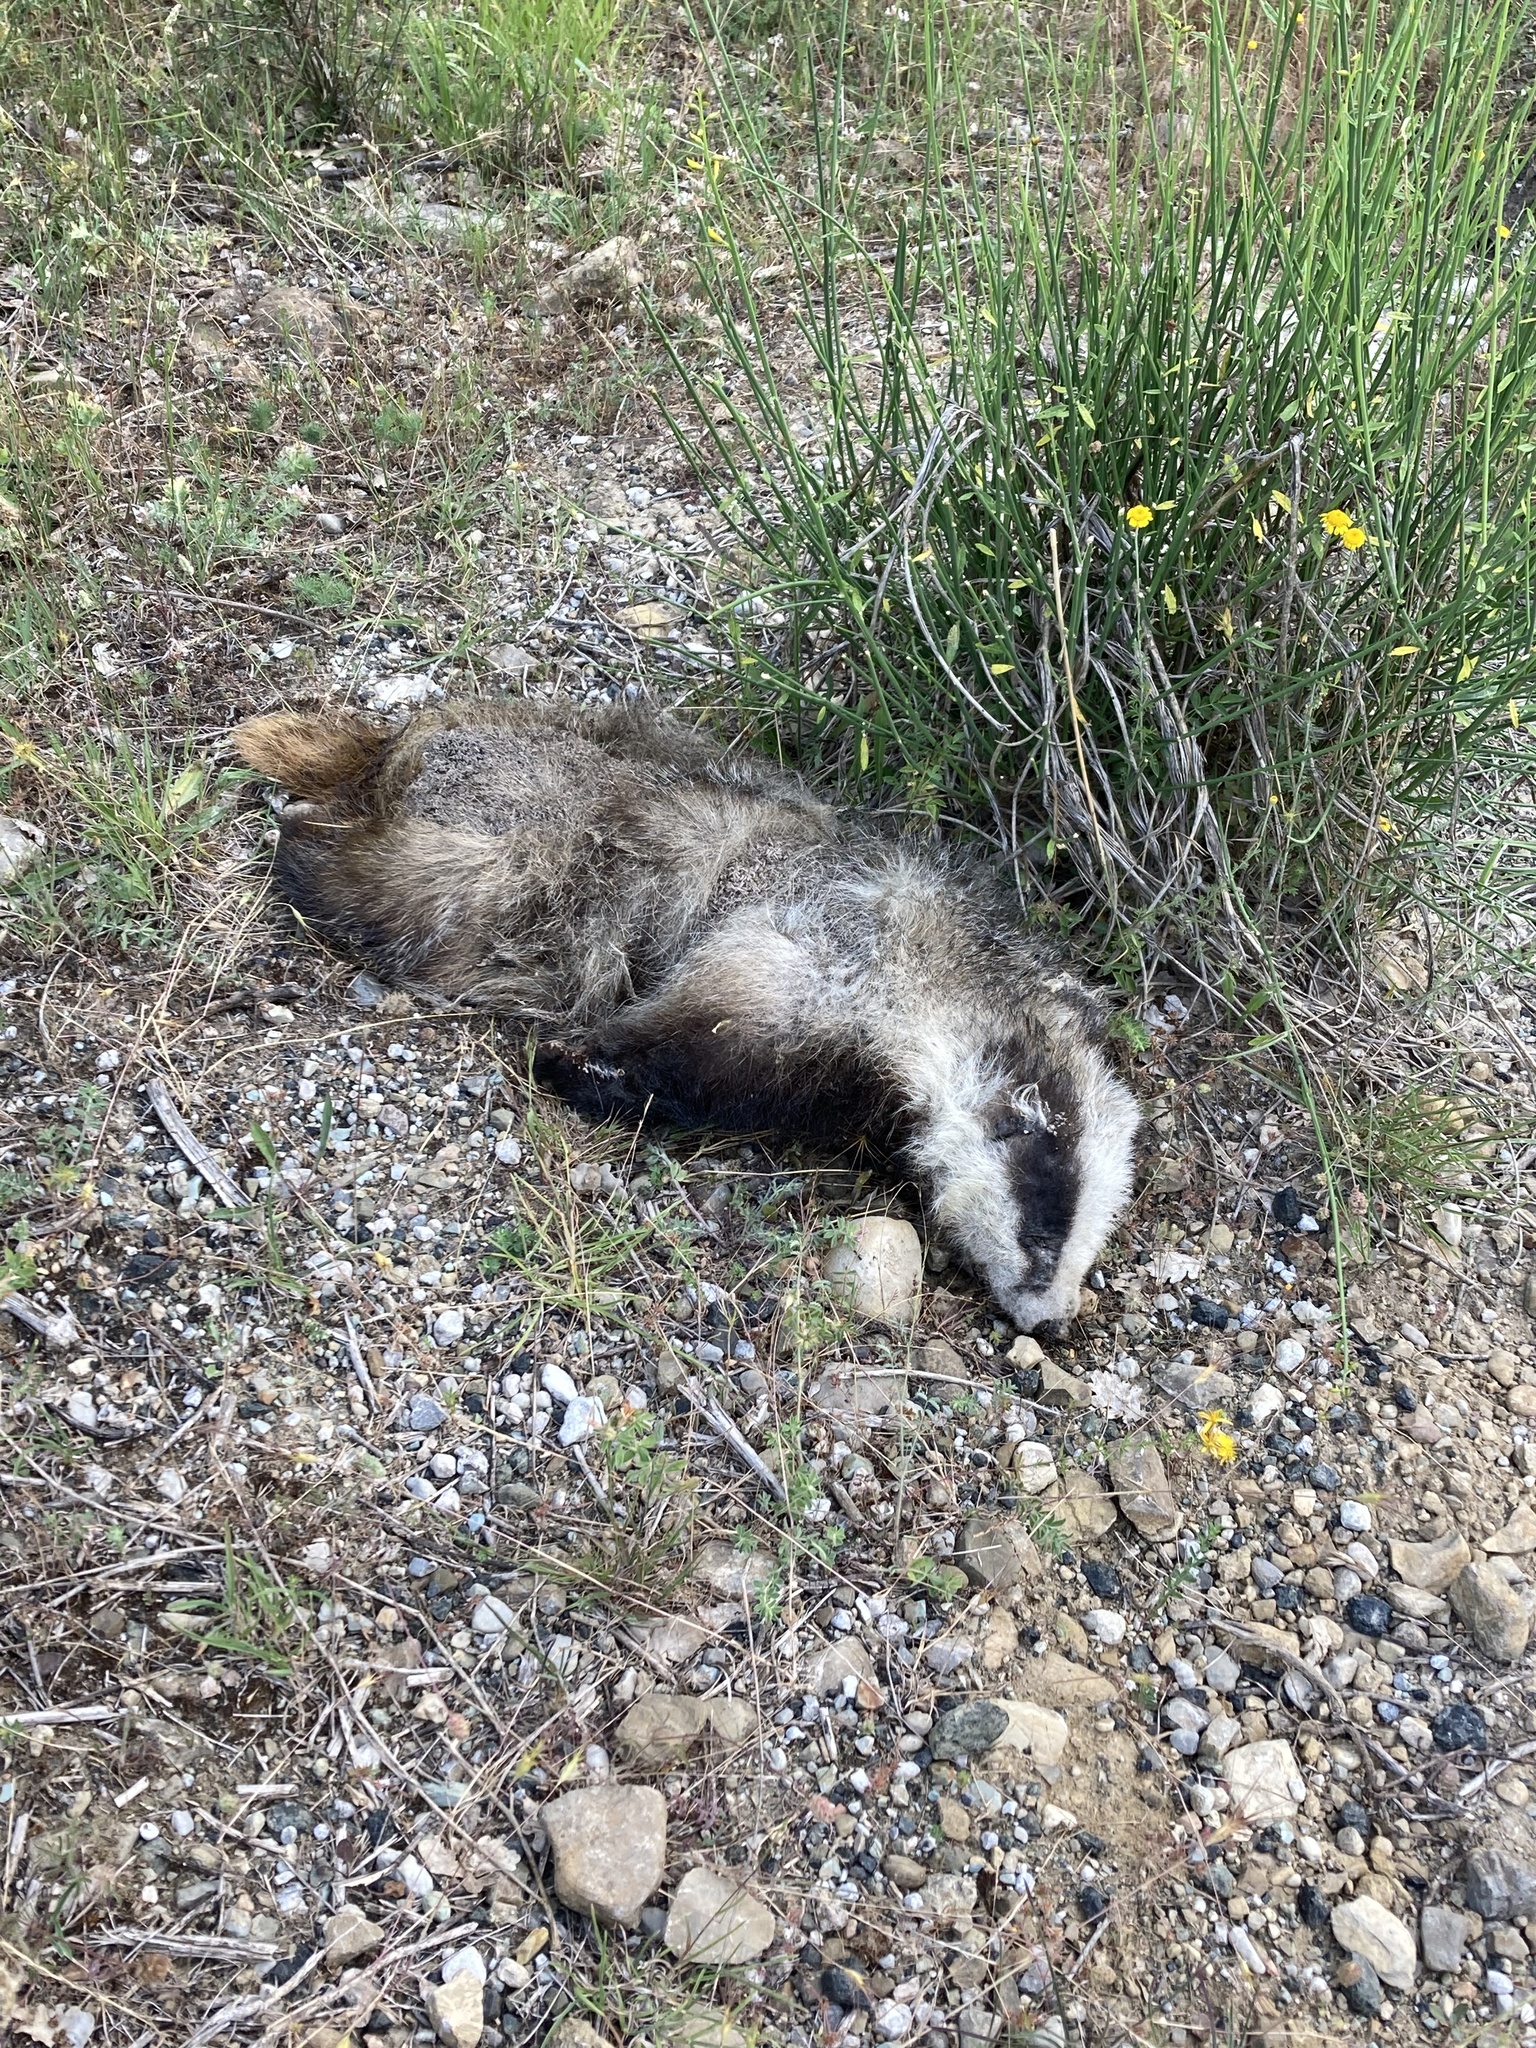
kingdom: Animalia
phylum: Chordata
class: Mammalia
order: Carnivora
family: Mustelidae
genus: Meles
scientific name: Meles meles
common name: Eurasian badger
